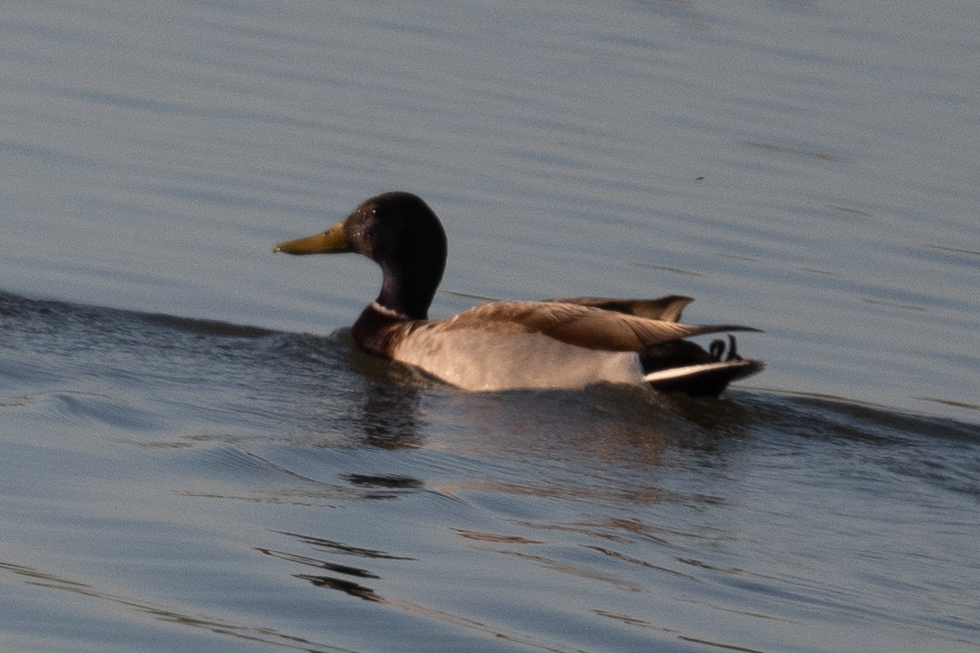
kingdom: Animalia
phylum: Chordata
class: Aves
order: Anseriformes
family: Anatidae
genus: Anas
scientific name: Anas platyrhynchos
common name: Mallard
